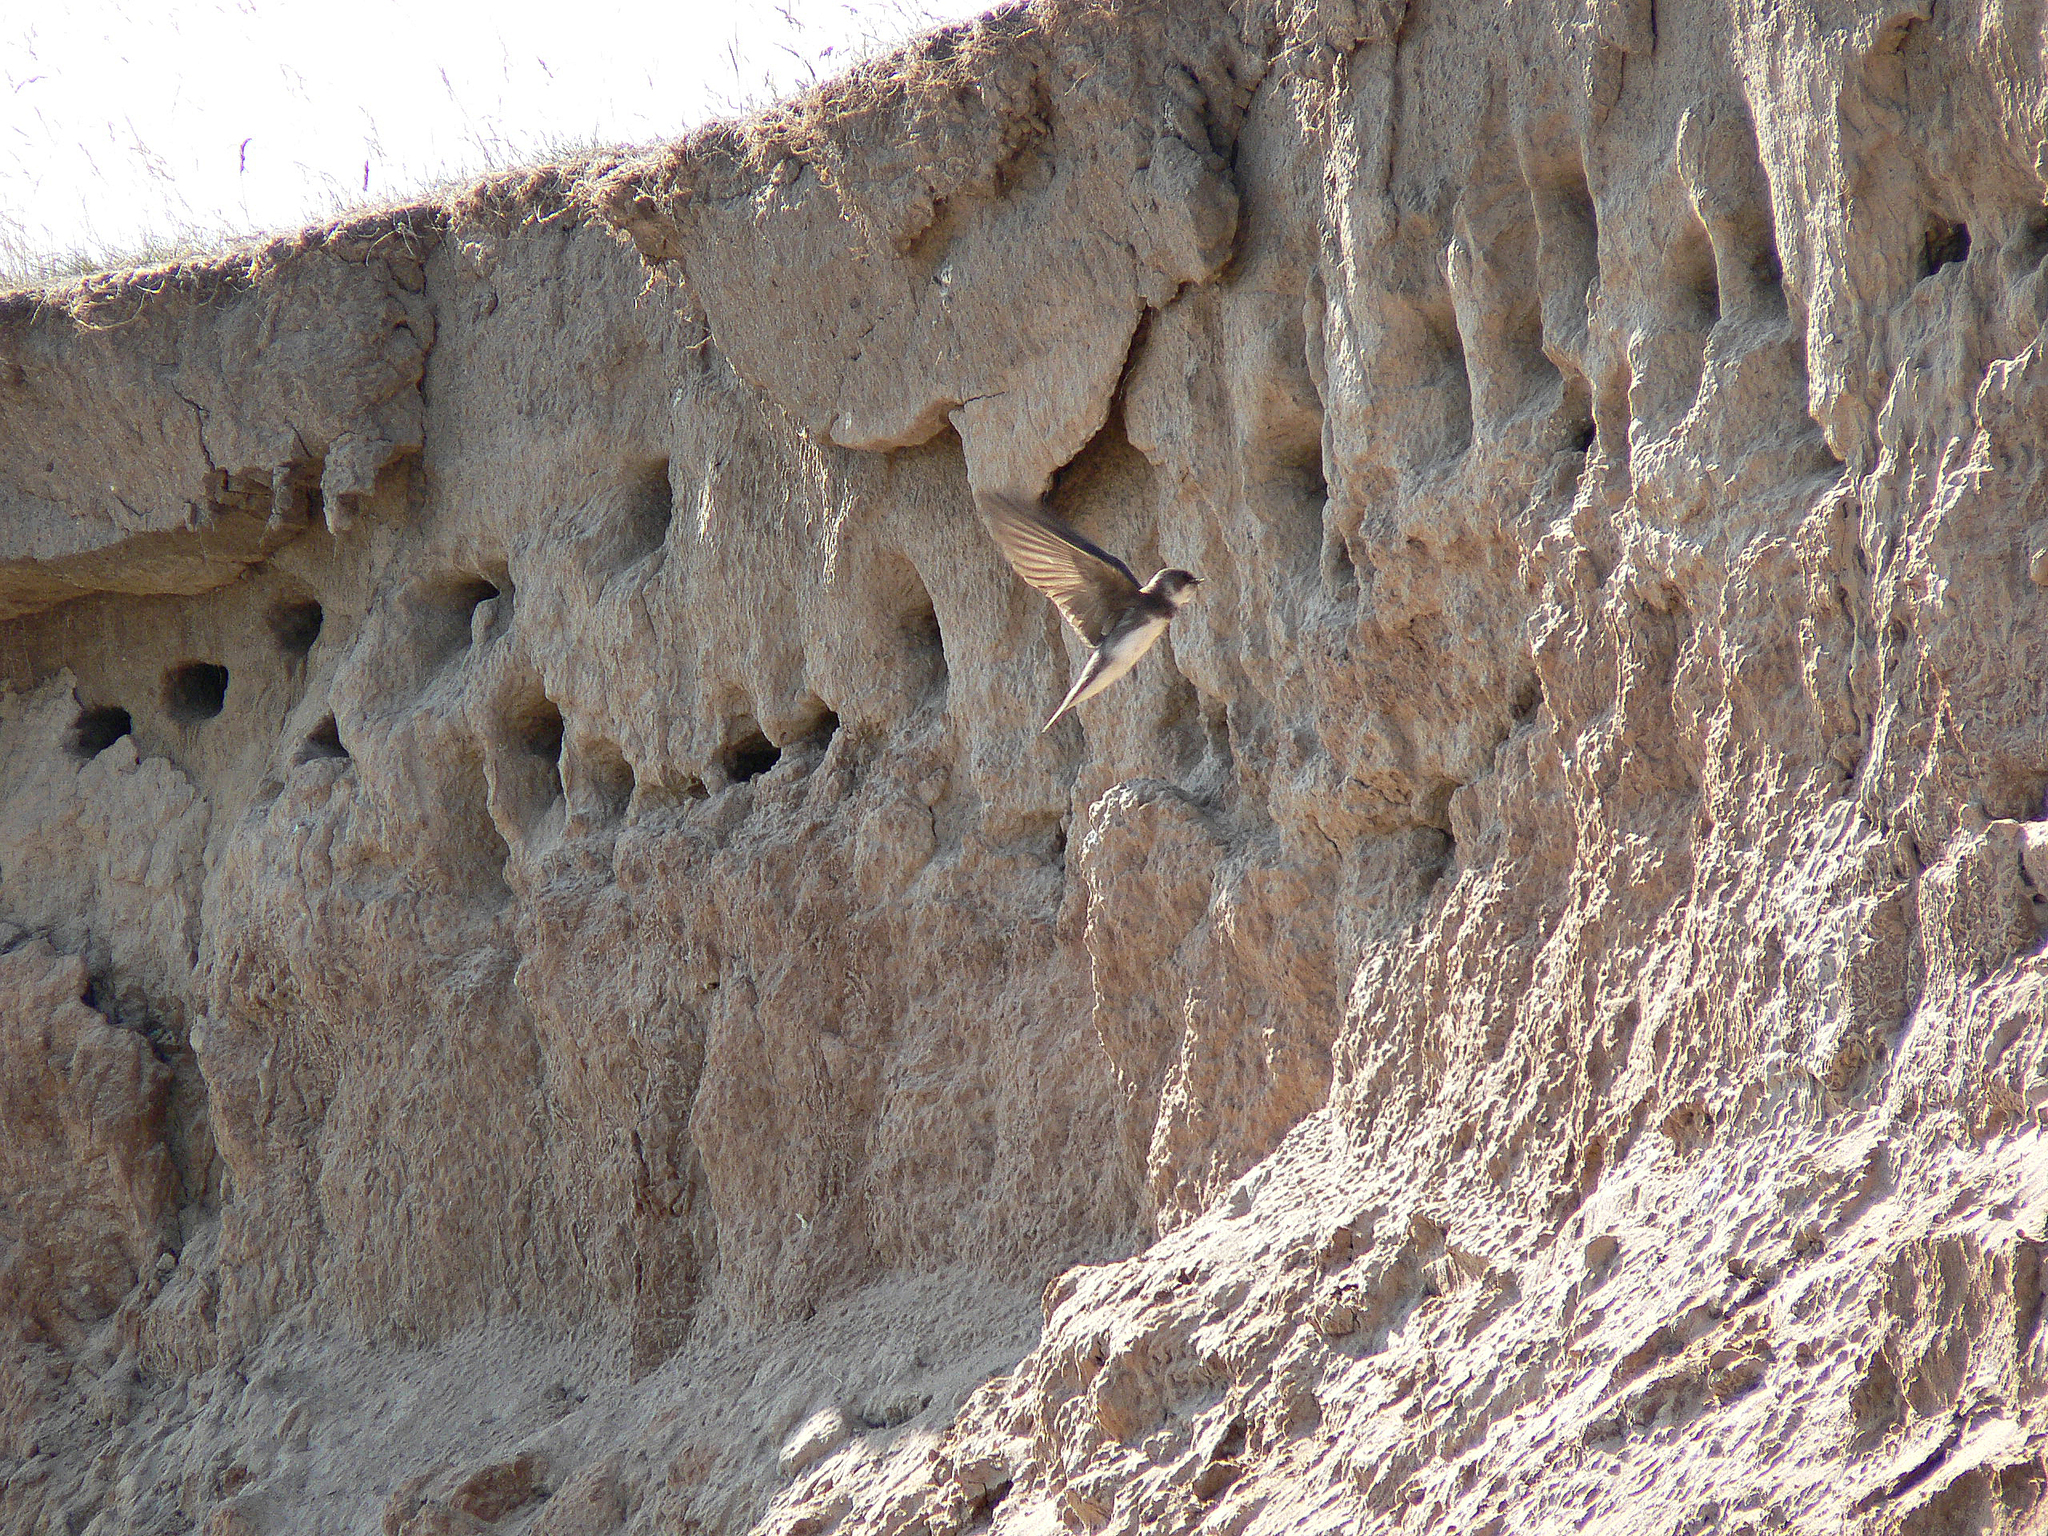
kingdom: Animalia
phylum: Chordata
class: Aves
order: Passeriformes
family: Hirundinidae
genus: Riparia
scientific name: Riparia riparia
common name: Sand martin
